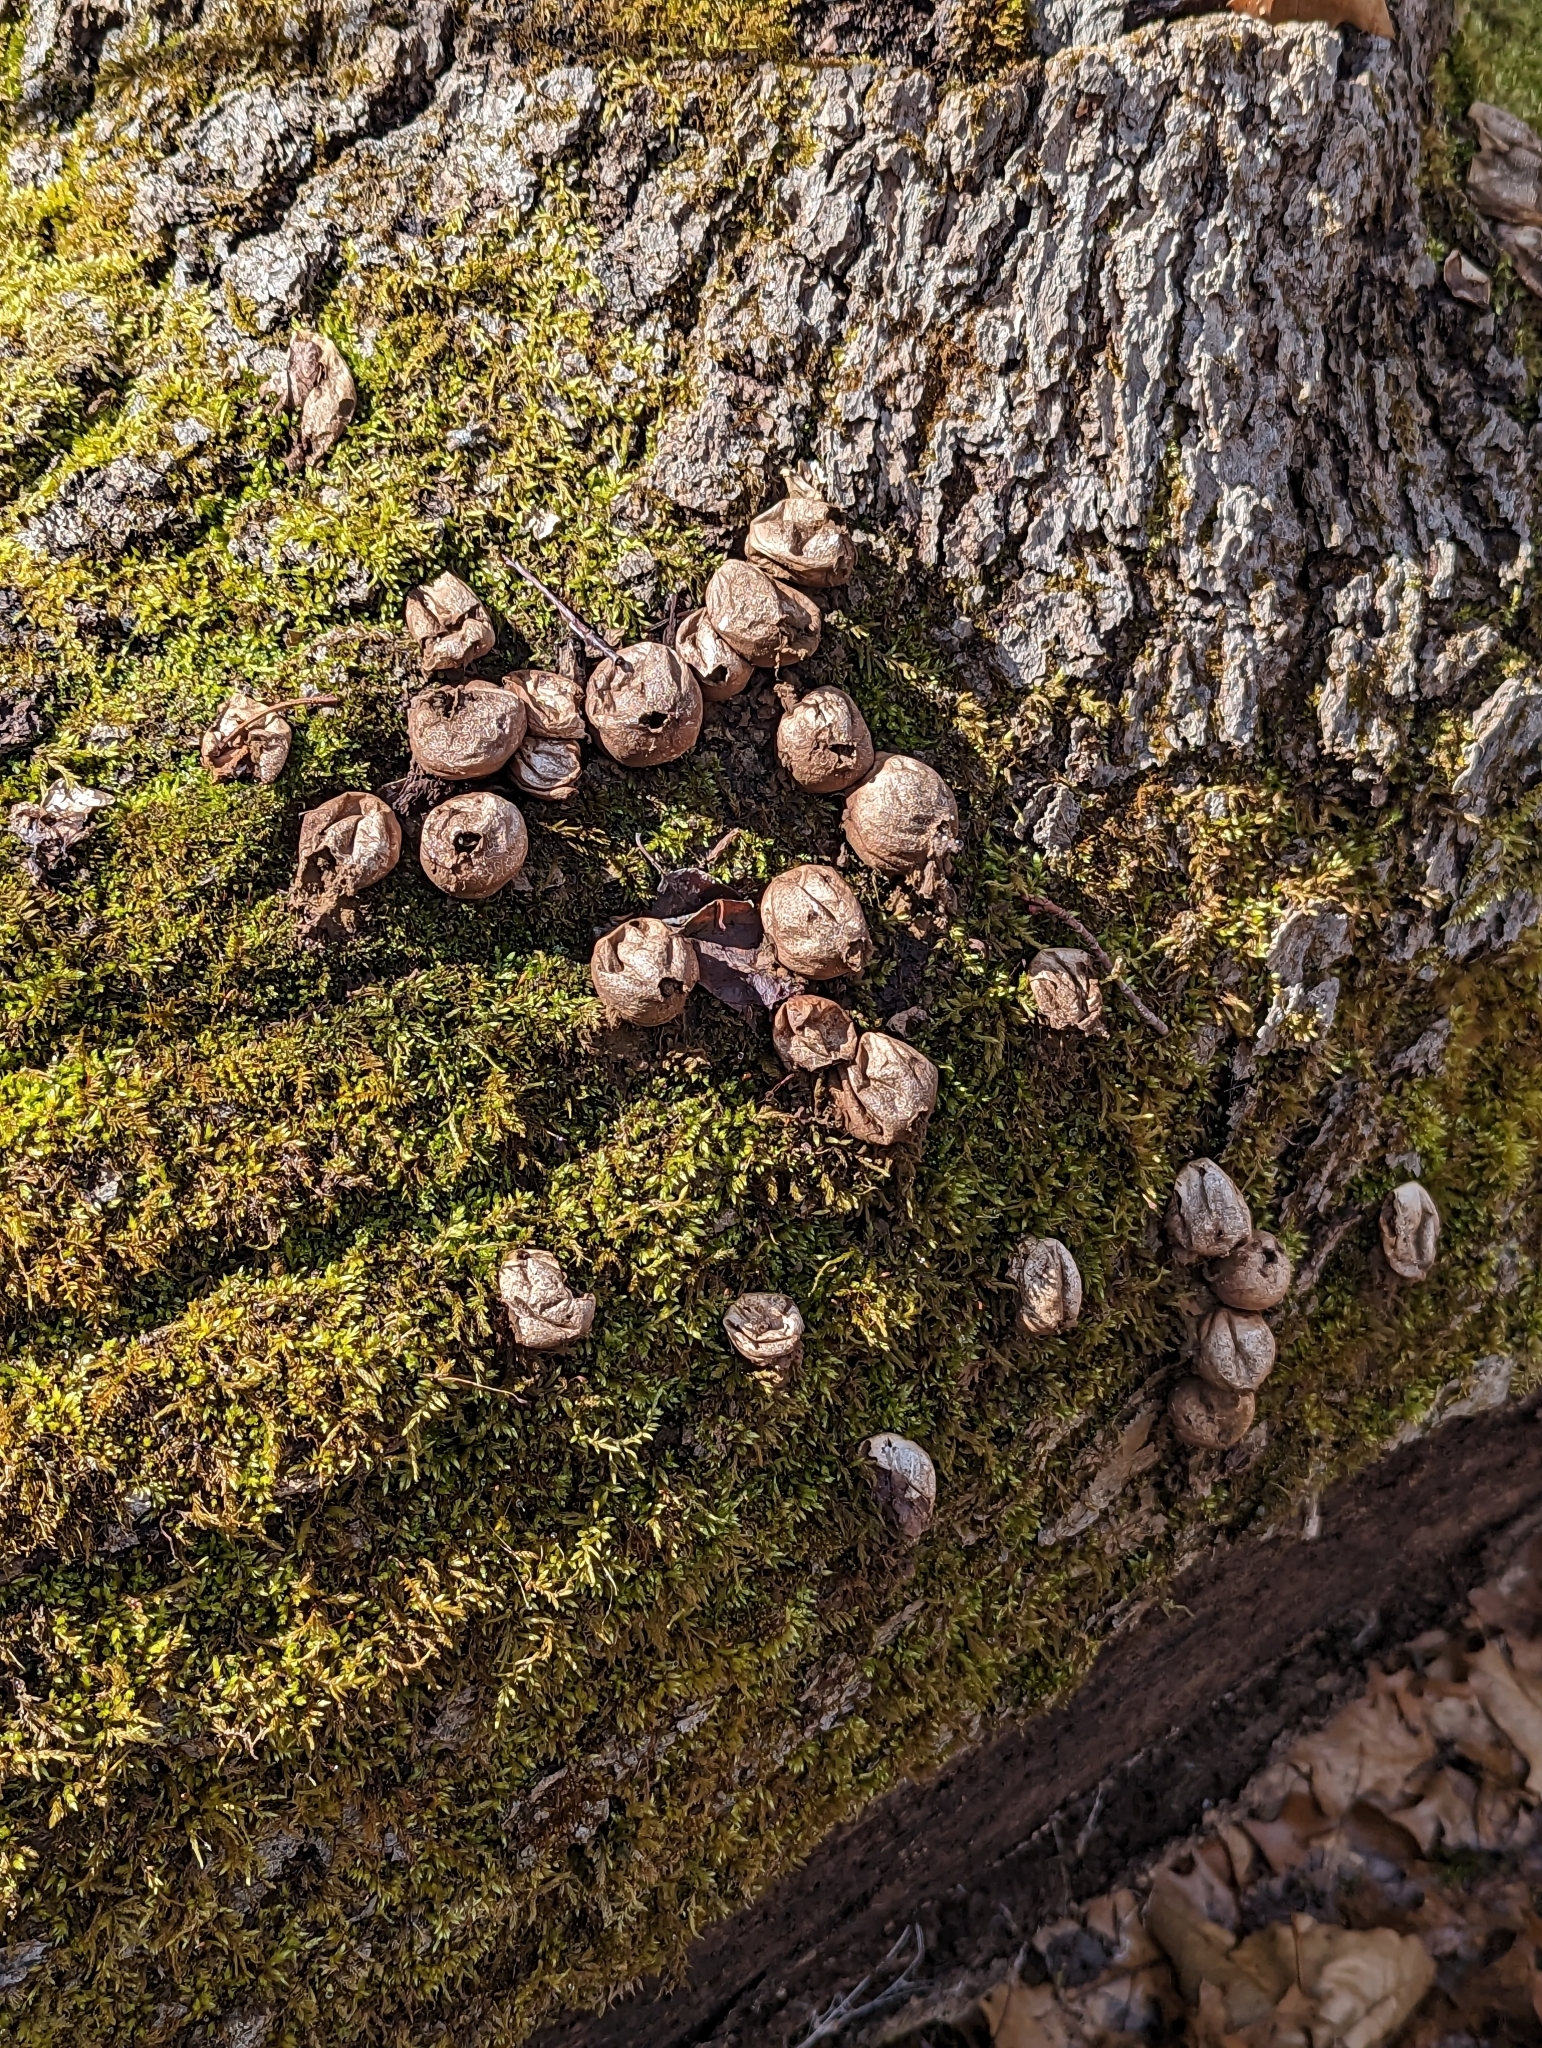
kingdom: Fungi
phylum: Basidiomycota
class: Agaricomycetes
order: Agaricales
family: Lycoperdaceae
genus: Apioperdon
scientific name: Apioperdon pyriforme
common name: Pear-shaped puffball
